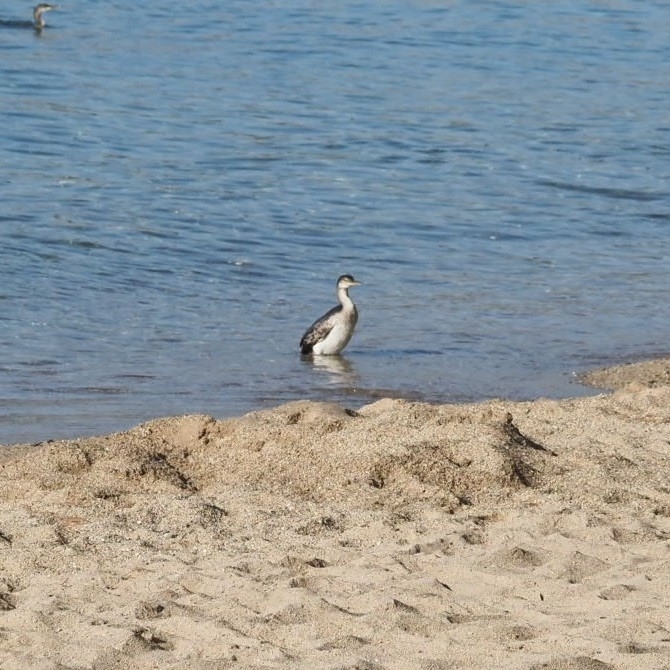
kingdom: Animalia
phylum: Chordata
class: Aves
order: Suliformes
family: Phalacrocoracidae
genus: Phalacrocorax
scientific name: Phalacrocorax aristotelis
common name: European shag
